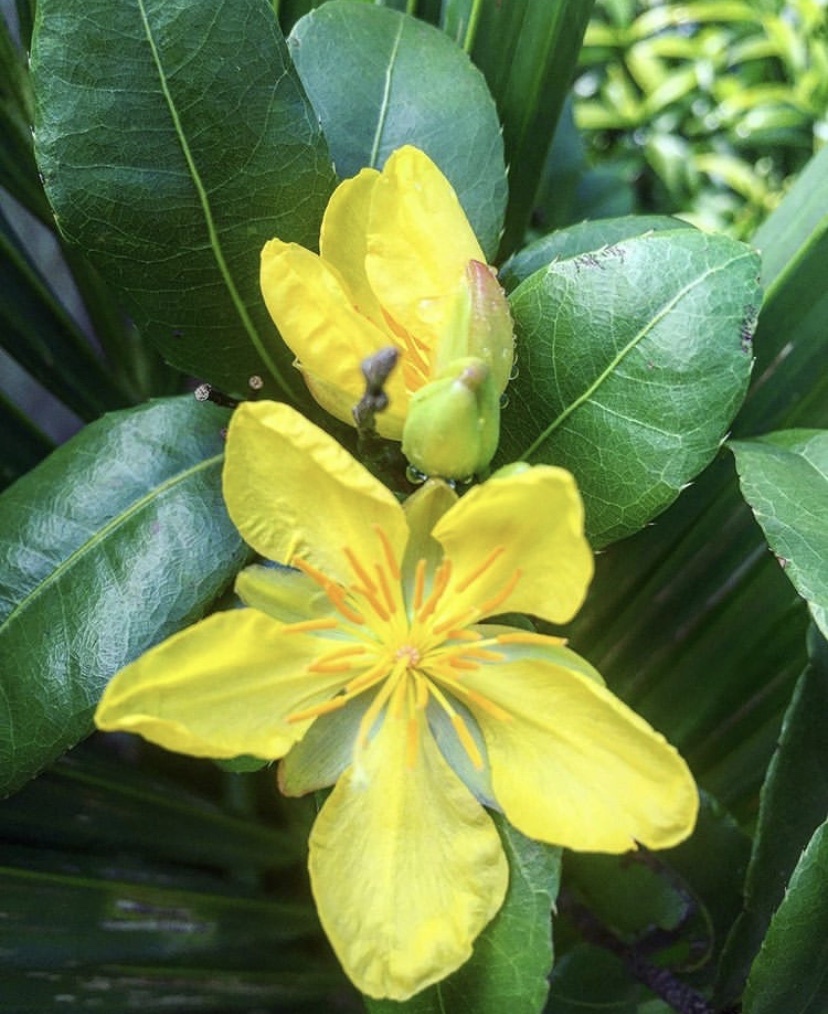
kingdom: Plantae
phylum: Tracheophyta
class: Magnoliopsida
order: Malpighiales
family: Ochnaceae
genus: Ochna
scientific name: Ochna serrulata
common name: Mickey mouse plant
